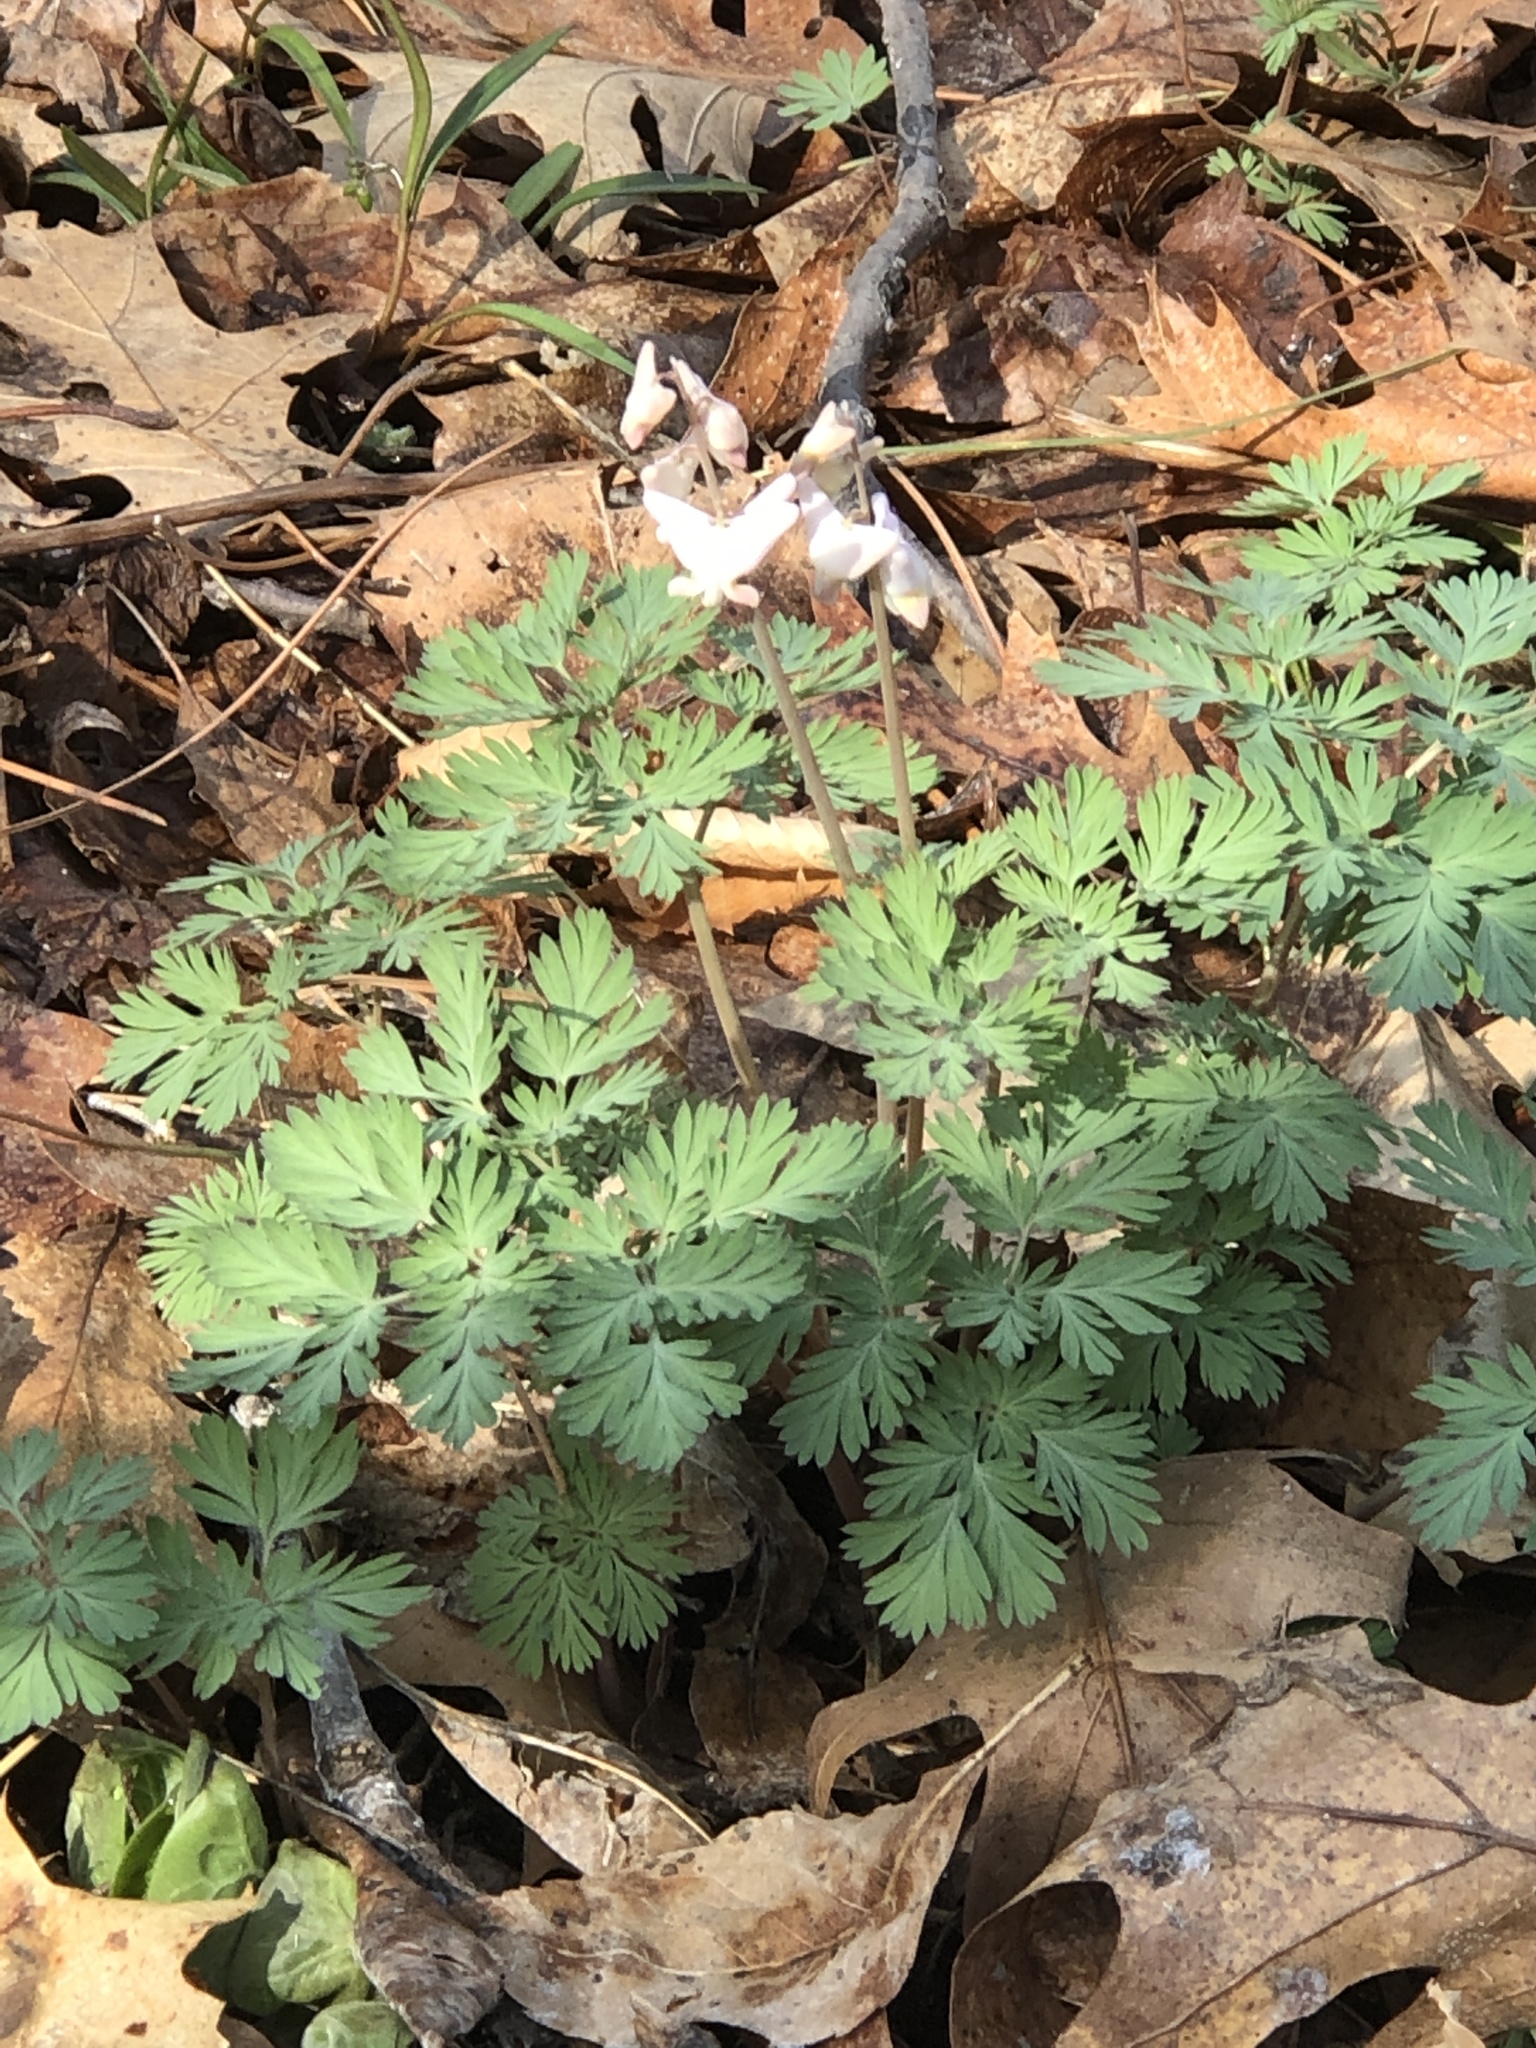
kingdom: Plantae
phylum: Tracheophyta
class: Magnoliopsida
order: Ranunculales
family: Papaveraceae
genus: Dicentra
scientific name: Dicentra cucullaria
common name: Dutchman's breeches
